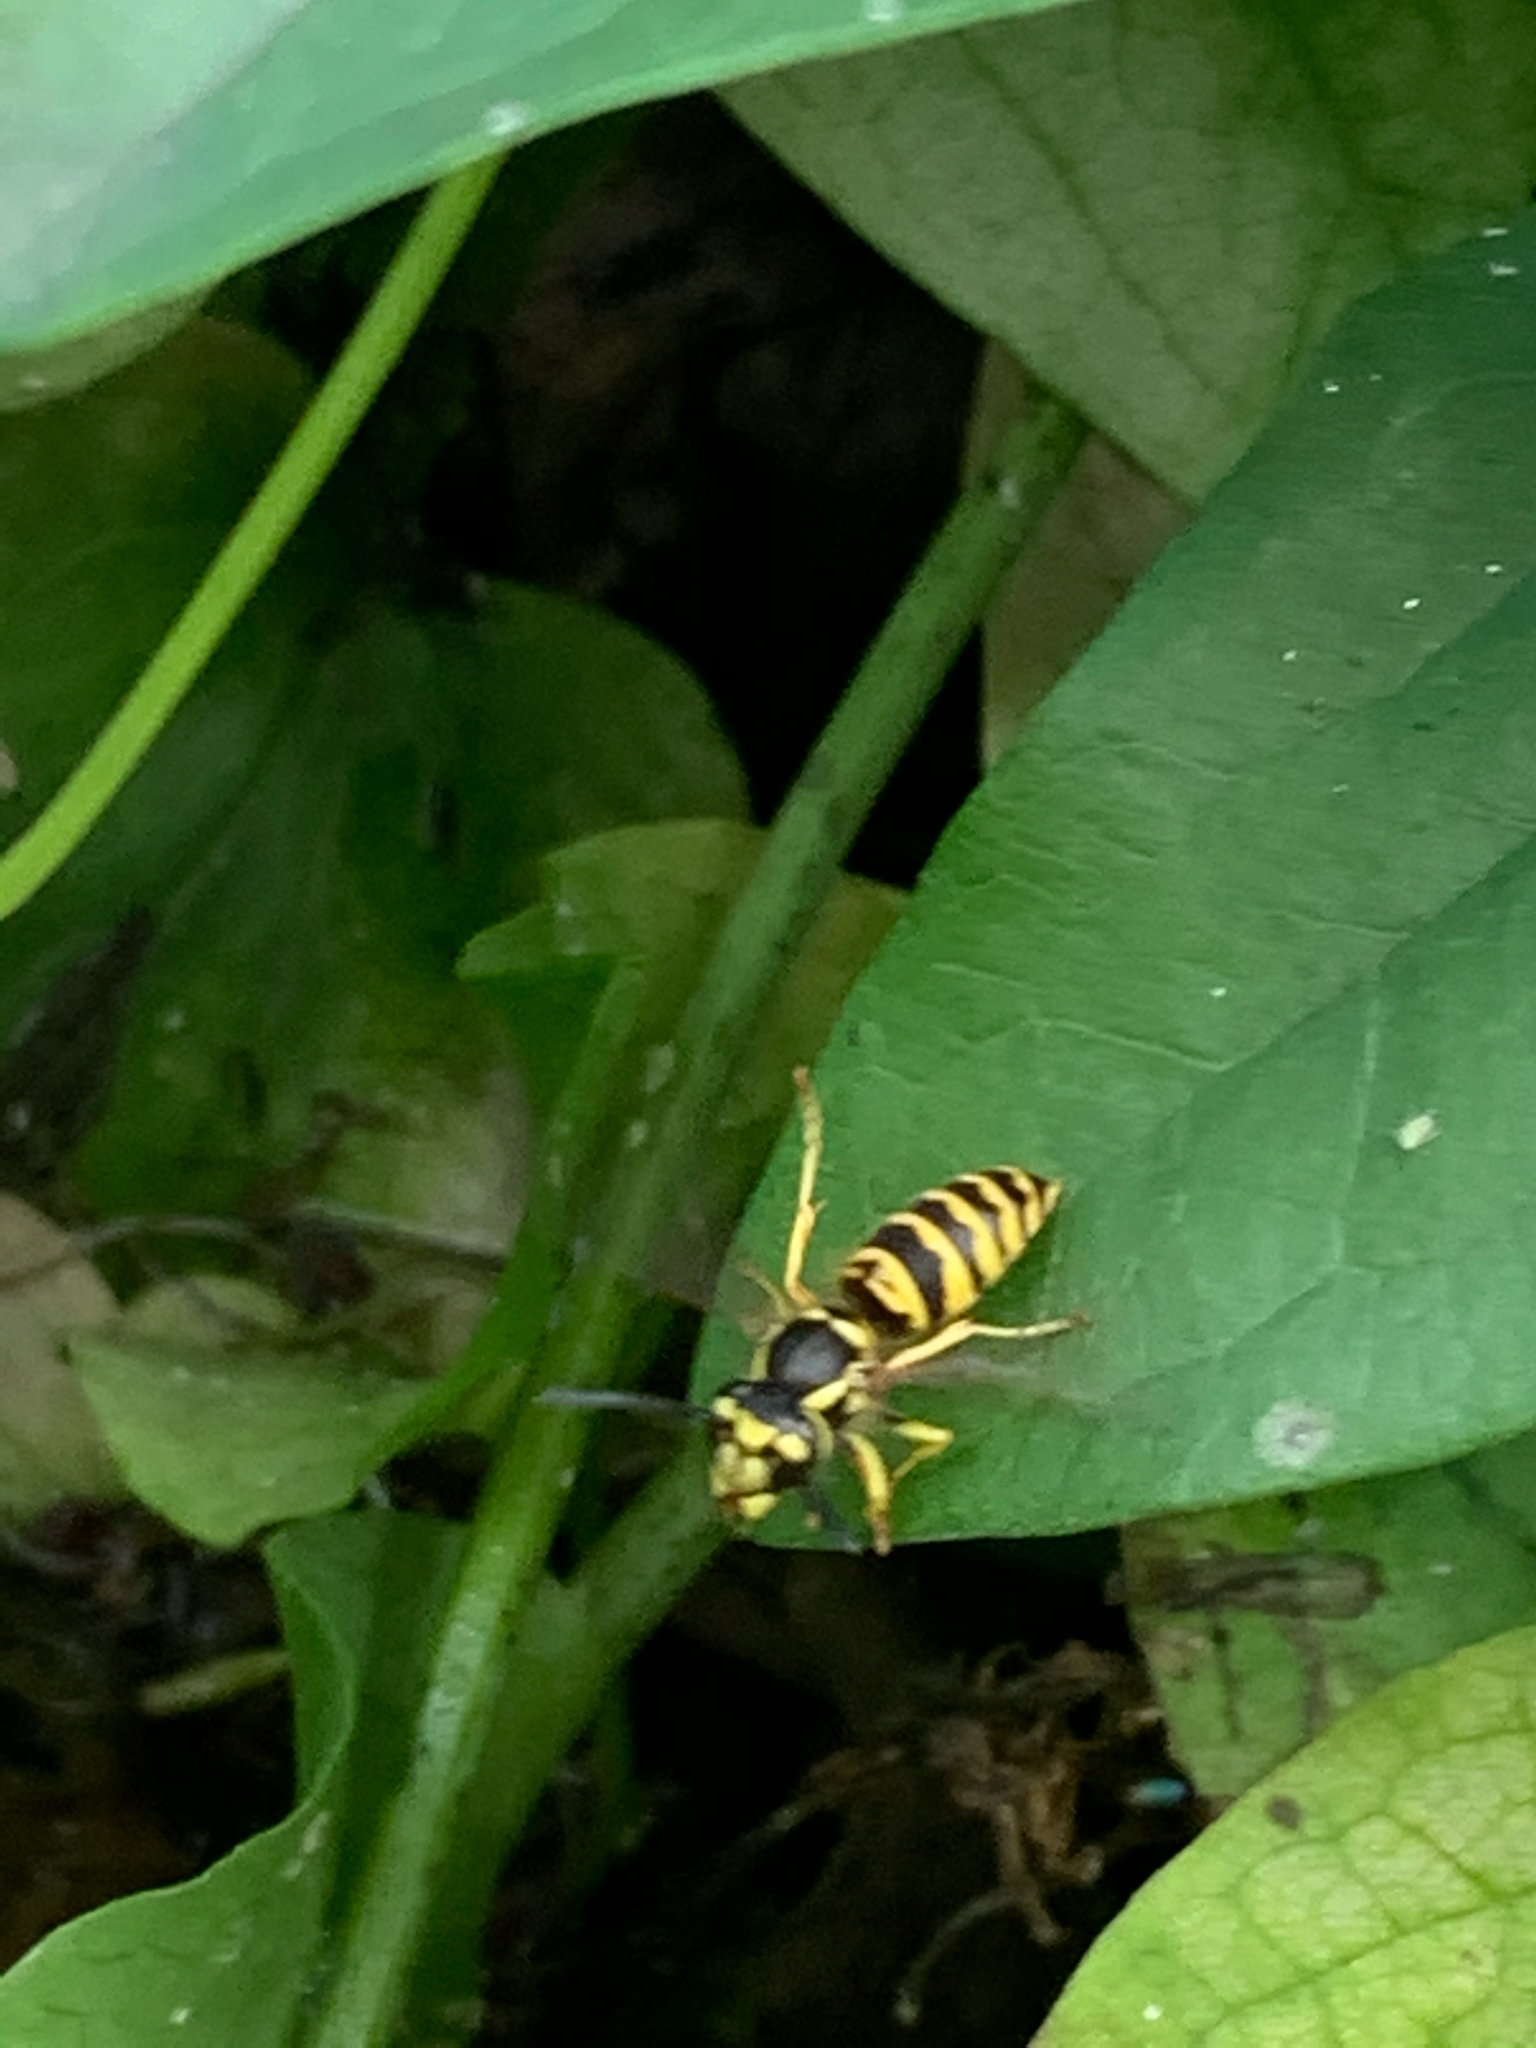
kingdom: Animalia
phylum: Arthropoda
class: Insecta
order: Hymenoptera
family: Vespidae
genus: Vespula
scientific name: Vespula maculifrons
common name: Eastern yellowjacket
